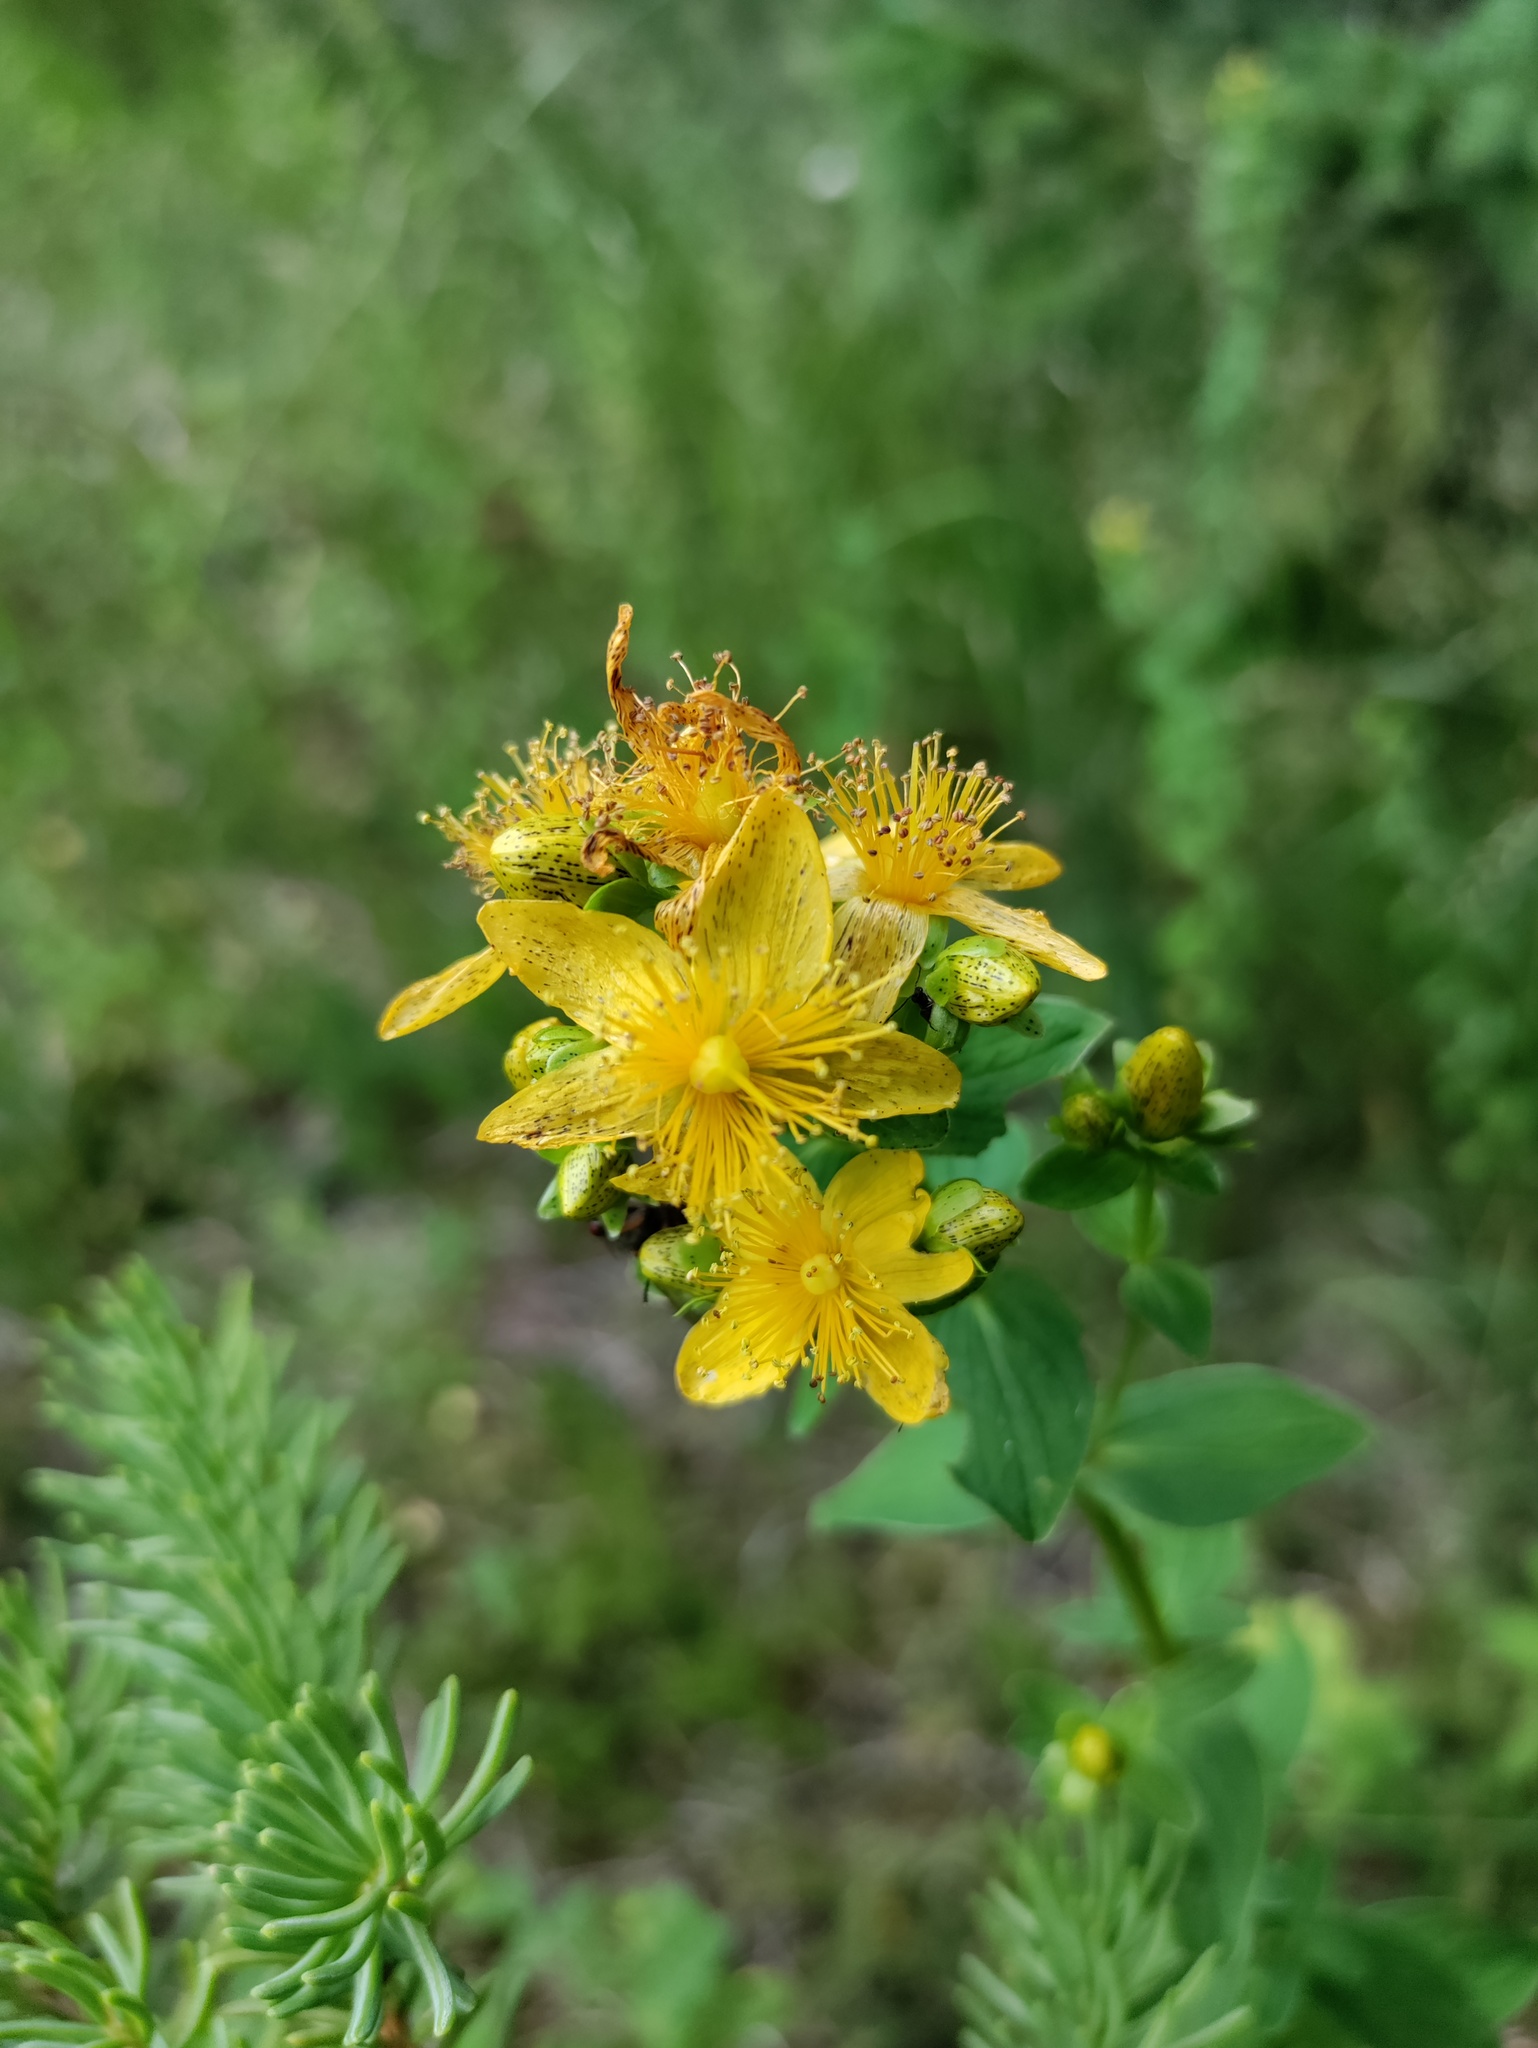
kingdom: Plantae
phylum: Tracheophyta
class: Magnoliopsida
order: Malpighiales
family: Hypericaceae
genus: Hypericum
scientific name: Hypericum maculatum
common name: Imperforate st. john's-wort
